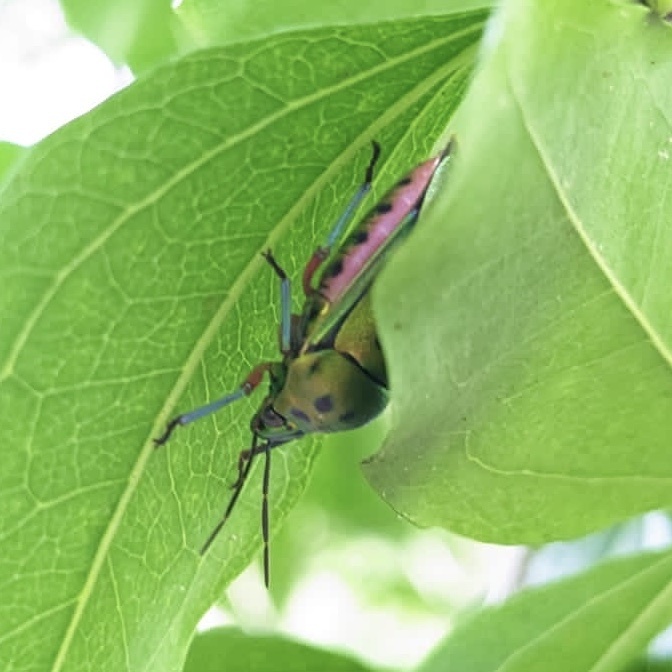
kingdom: Animalia
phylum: Arthropoda
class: Insecta
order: Hemiptera
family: Scutelleridae
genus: Calliphara
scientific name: Calliphara nobilis
